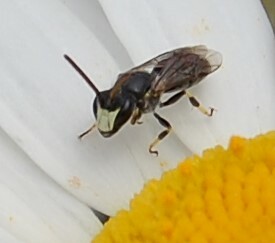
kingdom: Animalia
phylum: Arthropoda
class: Insecta
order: Hymenoptera
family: Colletidae
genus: Hylaeus
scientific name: Hylaeus hyalinatus
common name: Hyaline masked bee
